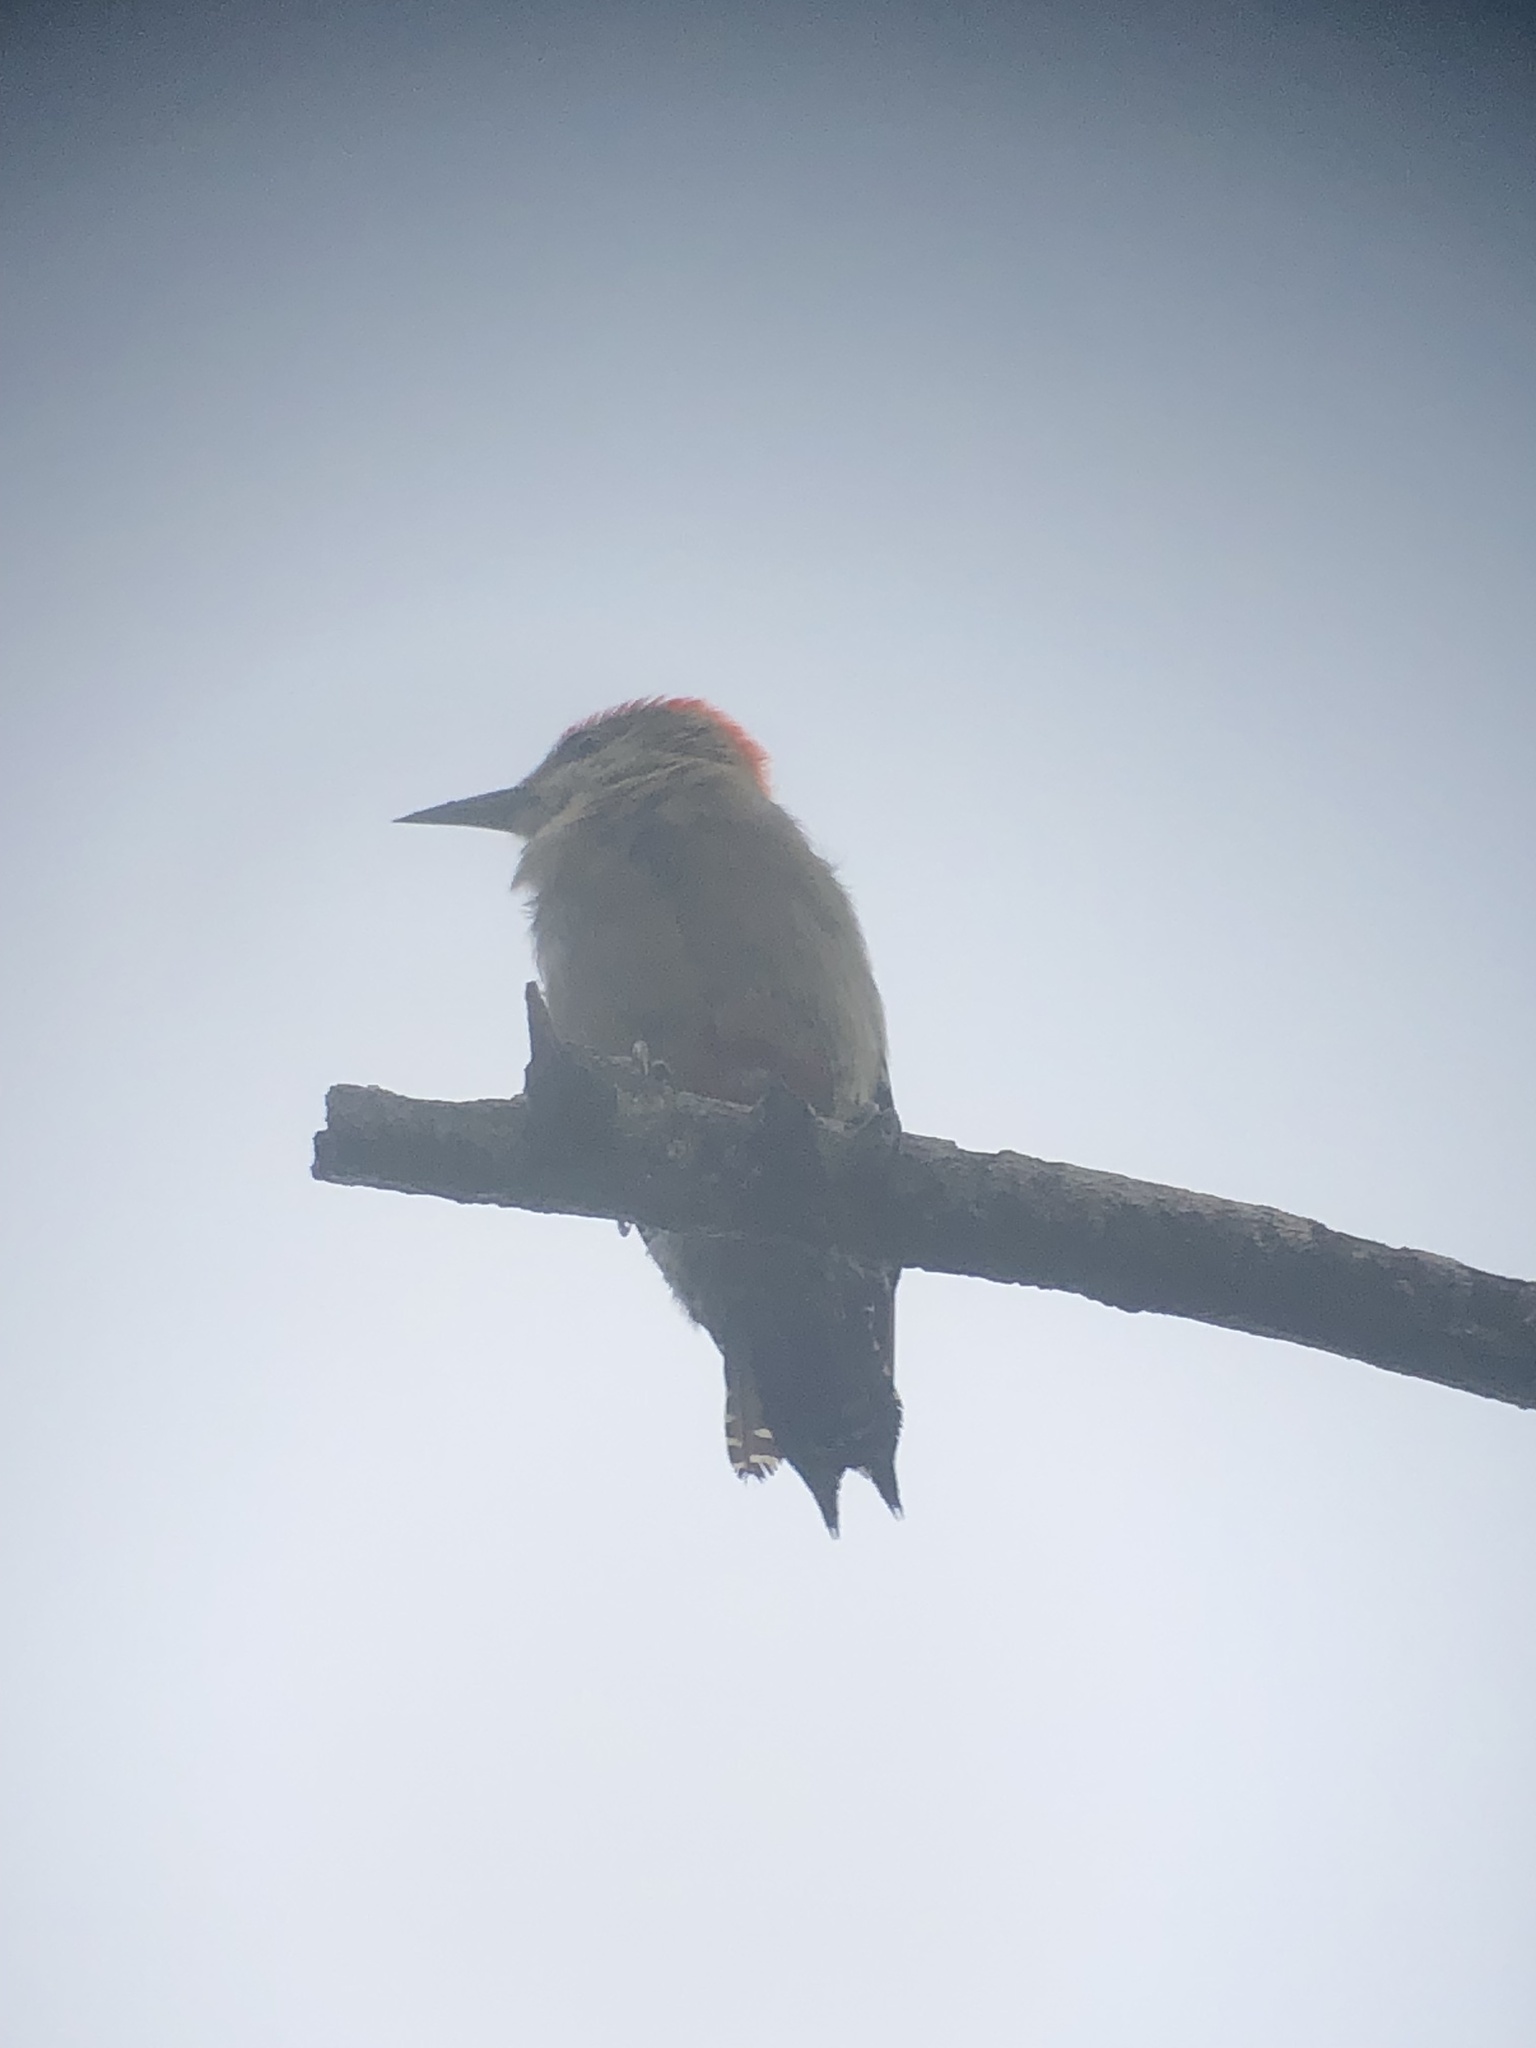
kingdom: Animalia
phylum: Chordata
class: Aves
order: Piciformes
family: Picidae
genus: Melanerpes
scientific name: Melanerpes rubricapillus
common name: Red-crowned woodpecker
